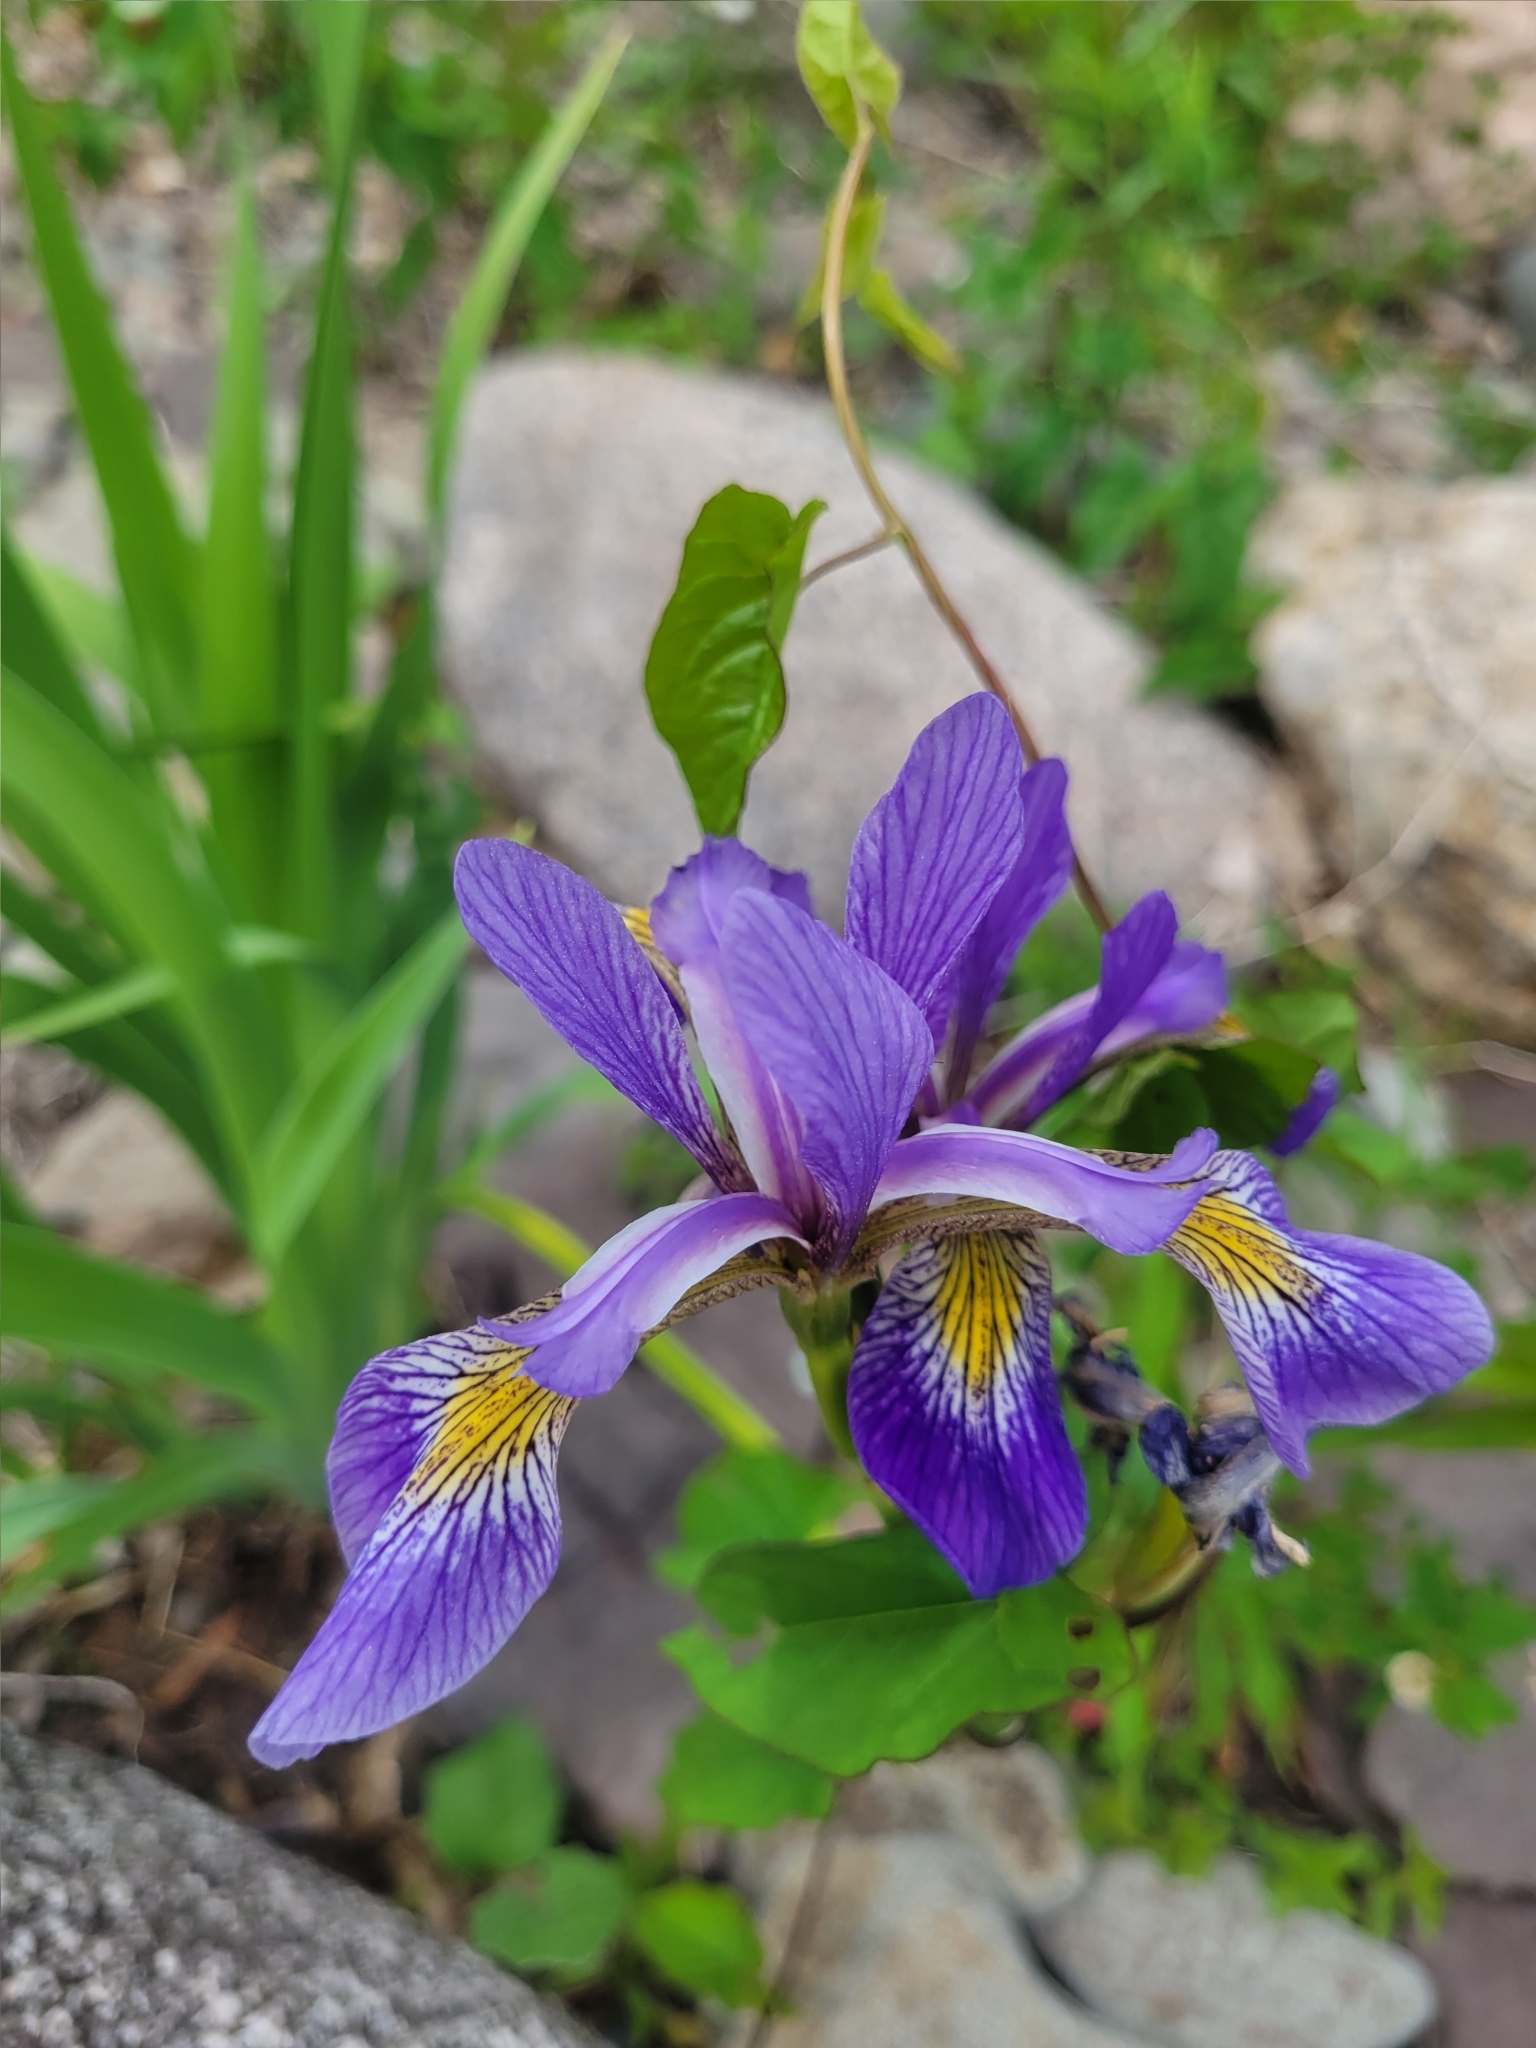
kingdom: Plantae
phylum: Tracheophyta
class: Liliopsida
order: Asparagales
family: Iridaceae
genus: Iris
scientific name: Iris versicolor
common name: Purple iris
